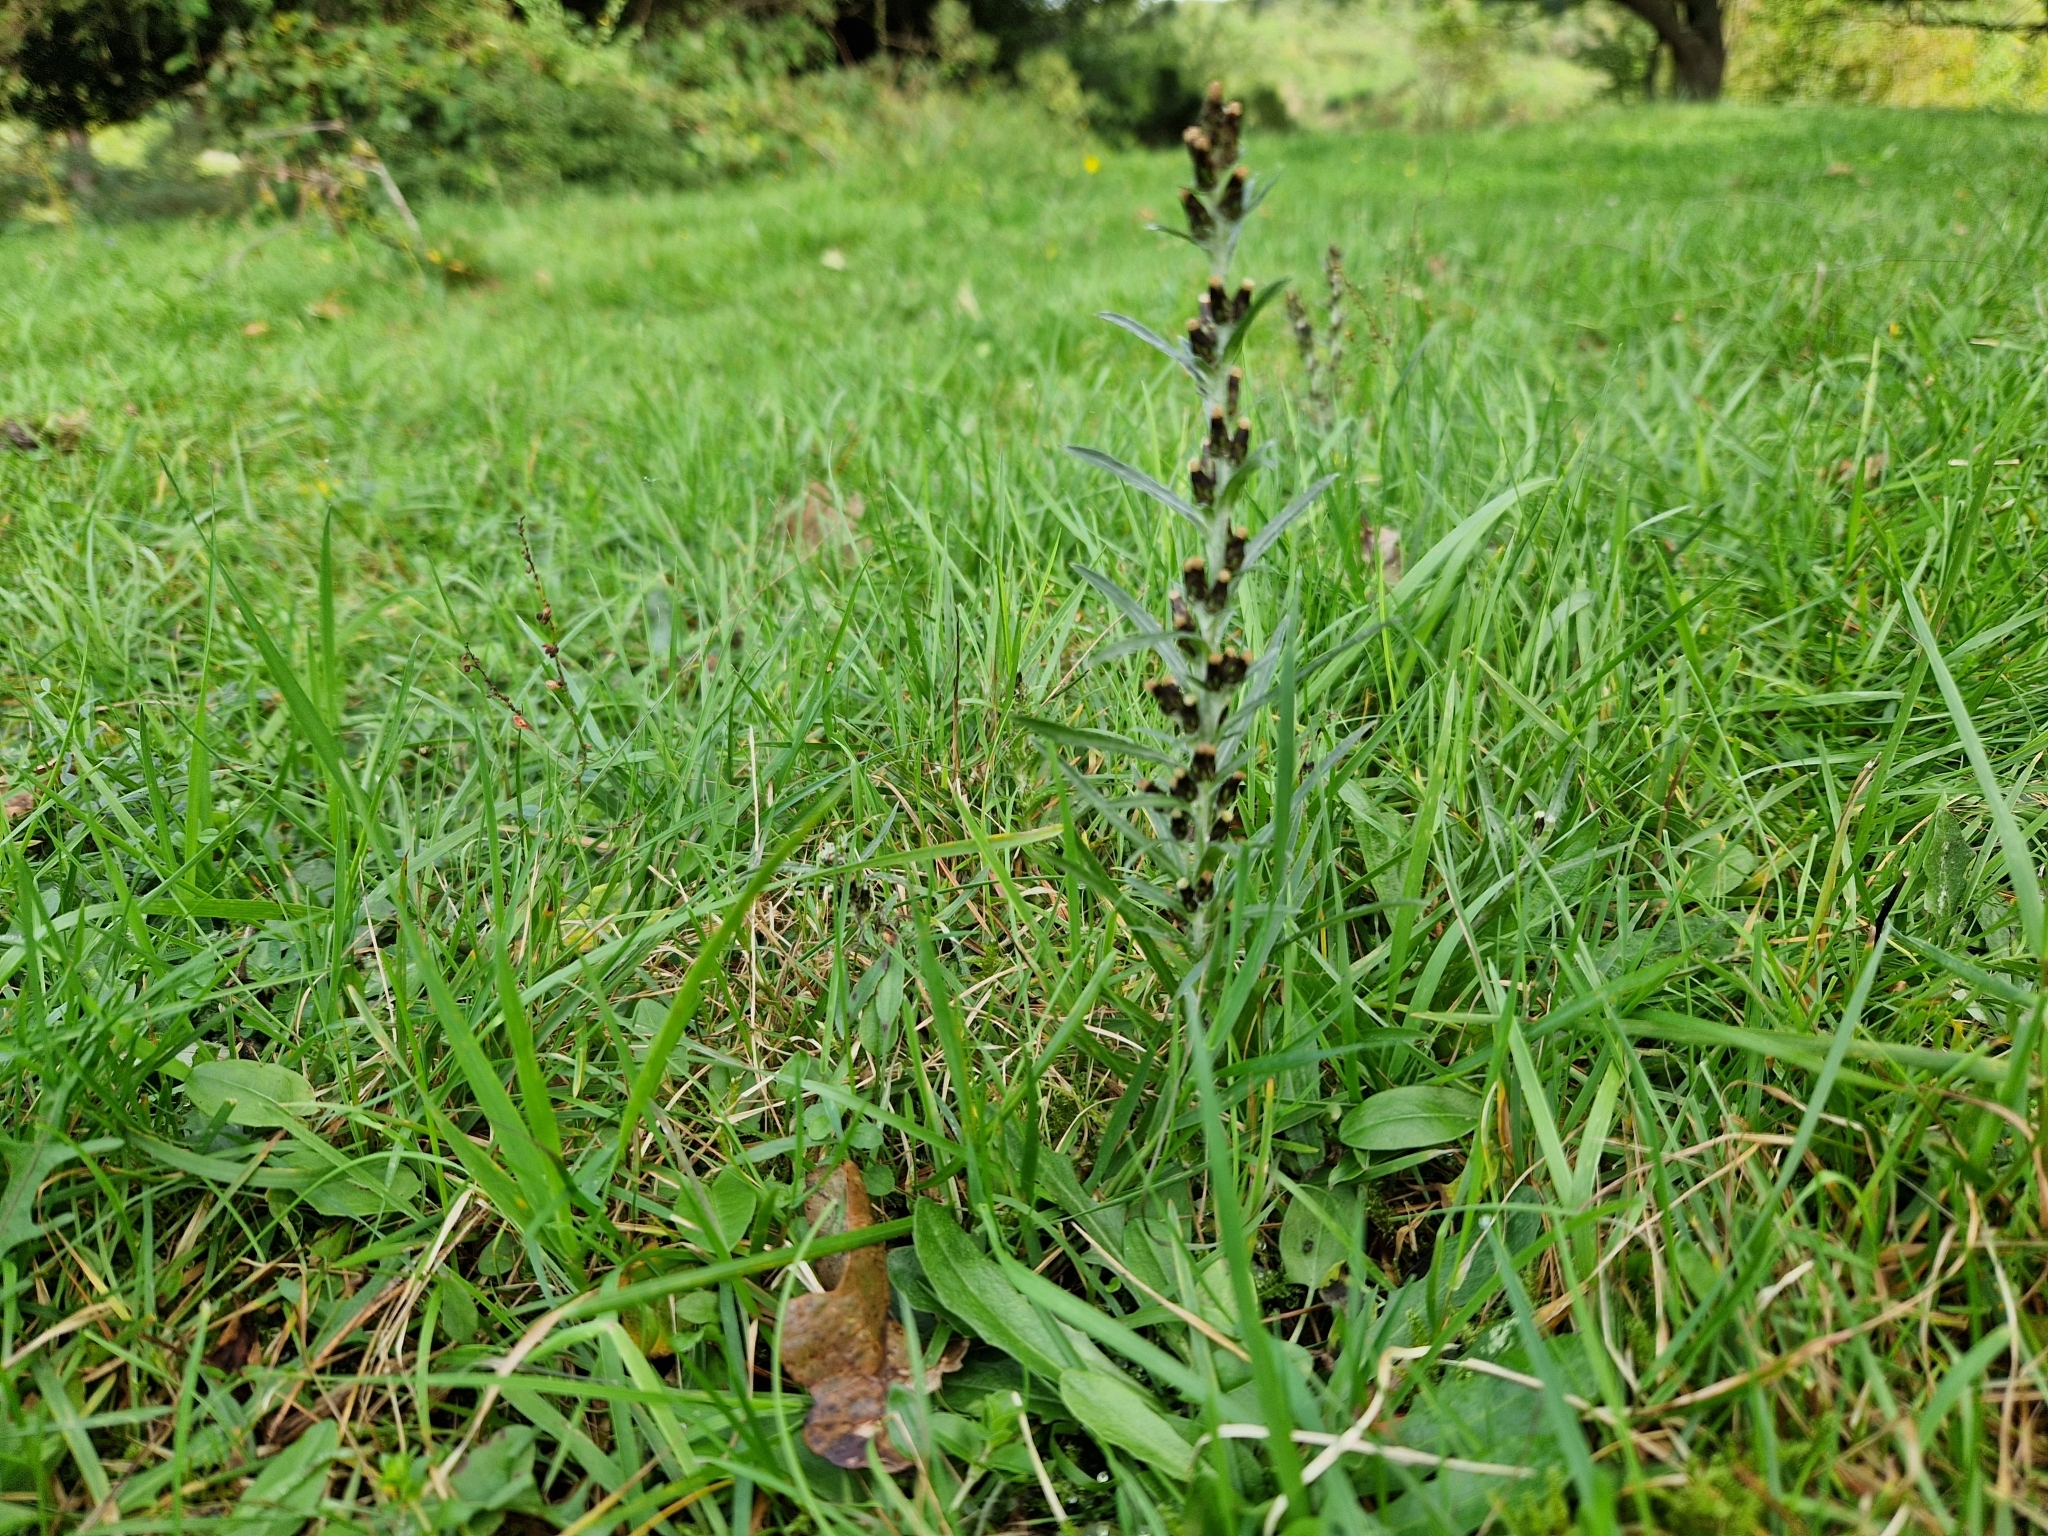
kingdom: Plantae
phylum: Tracheophyta
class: Magnoliopsida
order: Asterales
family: Asteraceae
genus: Omalotheca
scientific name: Omalotheca sylvatica
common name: Heath cudweed
